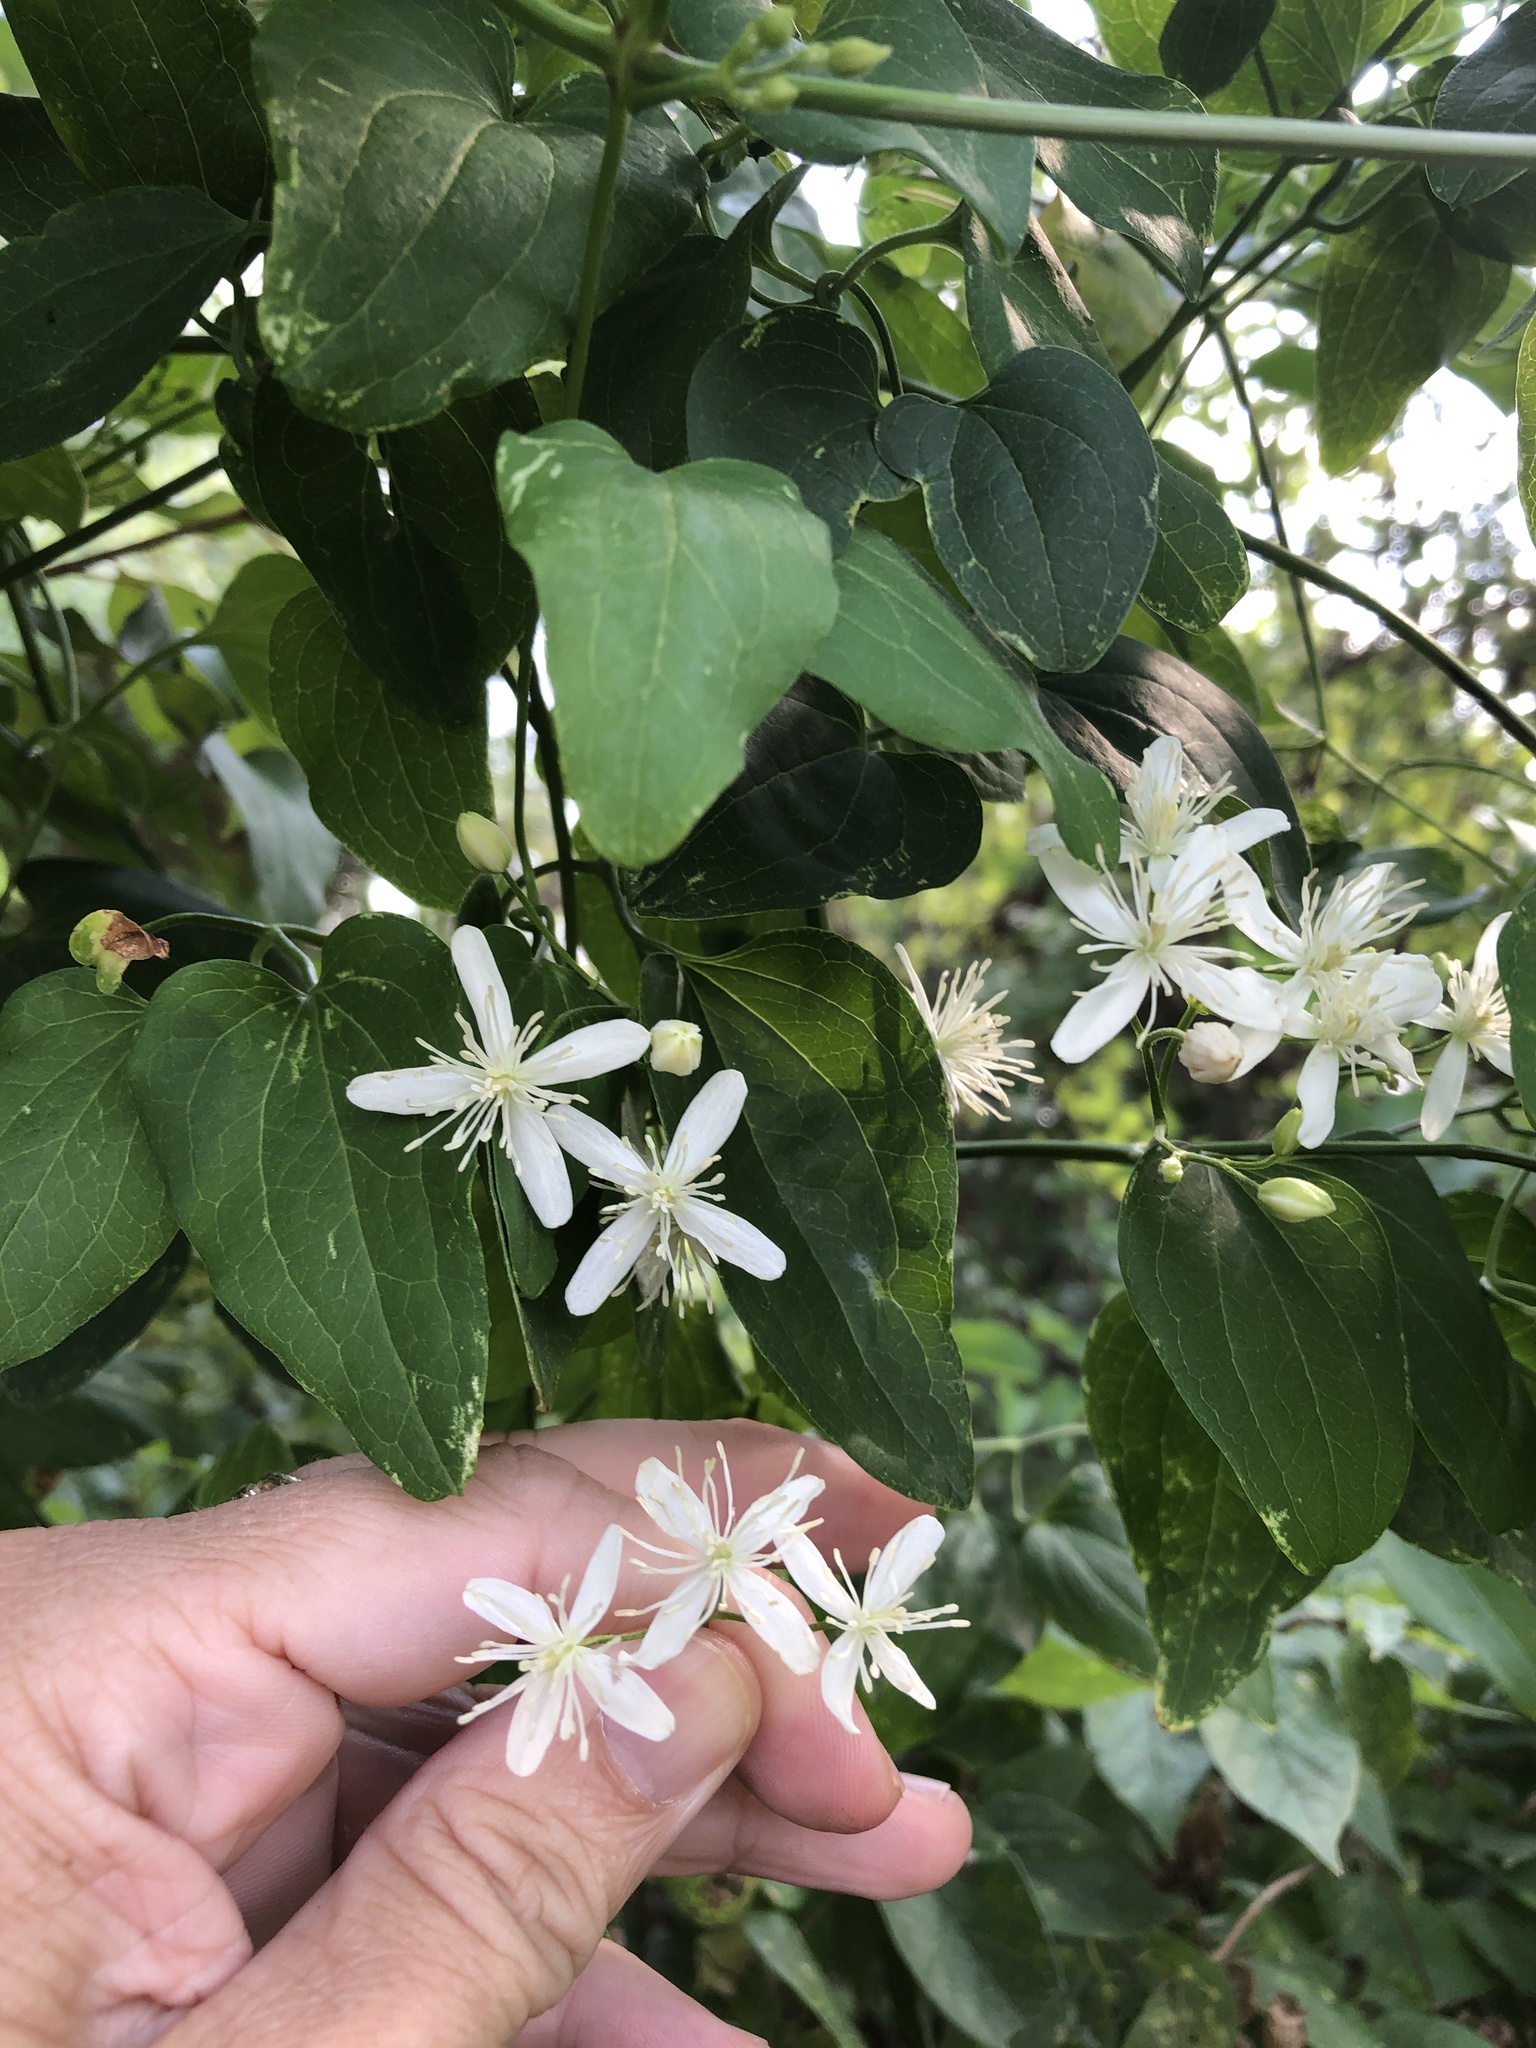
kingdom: Plantae
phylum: Tracheophyta
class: Magnoliopsida
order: Ranunculales
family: Ranunculaceae
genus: Clematis
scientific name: Clematis terniflora
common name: Sweet autumn clematis
